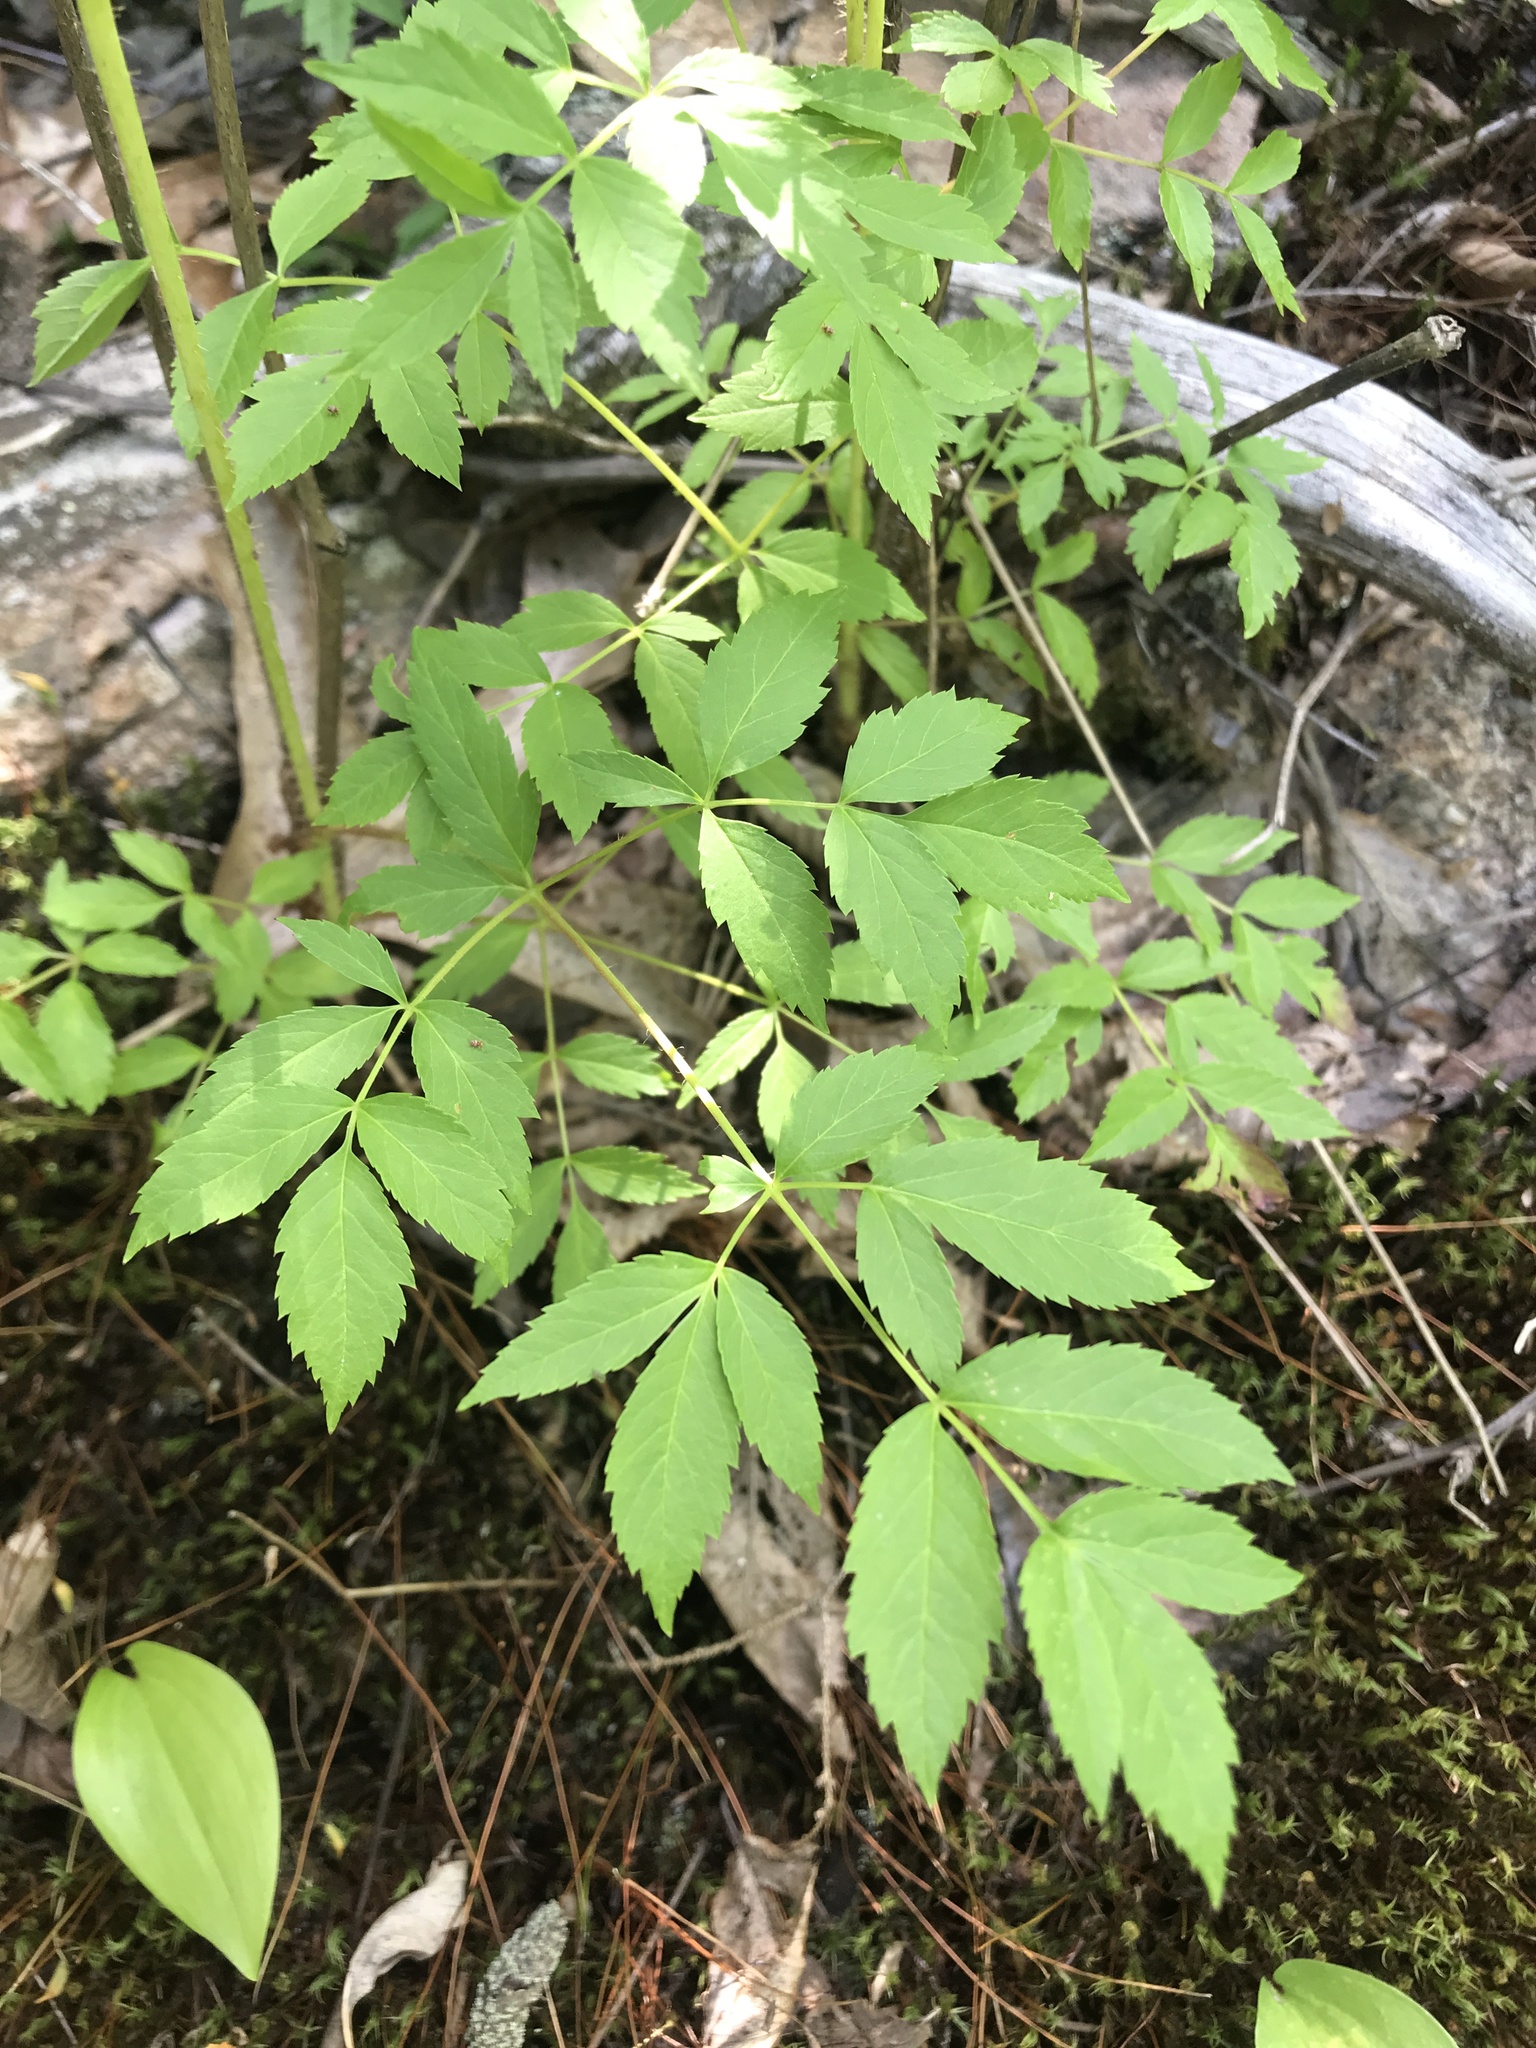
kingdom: Plantae
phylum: Tracheophyta
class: Magnoliopsida
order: Apiales
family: Araliaceae
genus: Aralia
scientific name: Aralia hispida
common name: Bristly sarsaparilla
